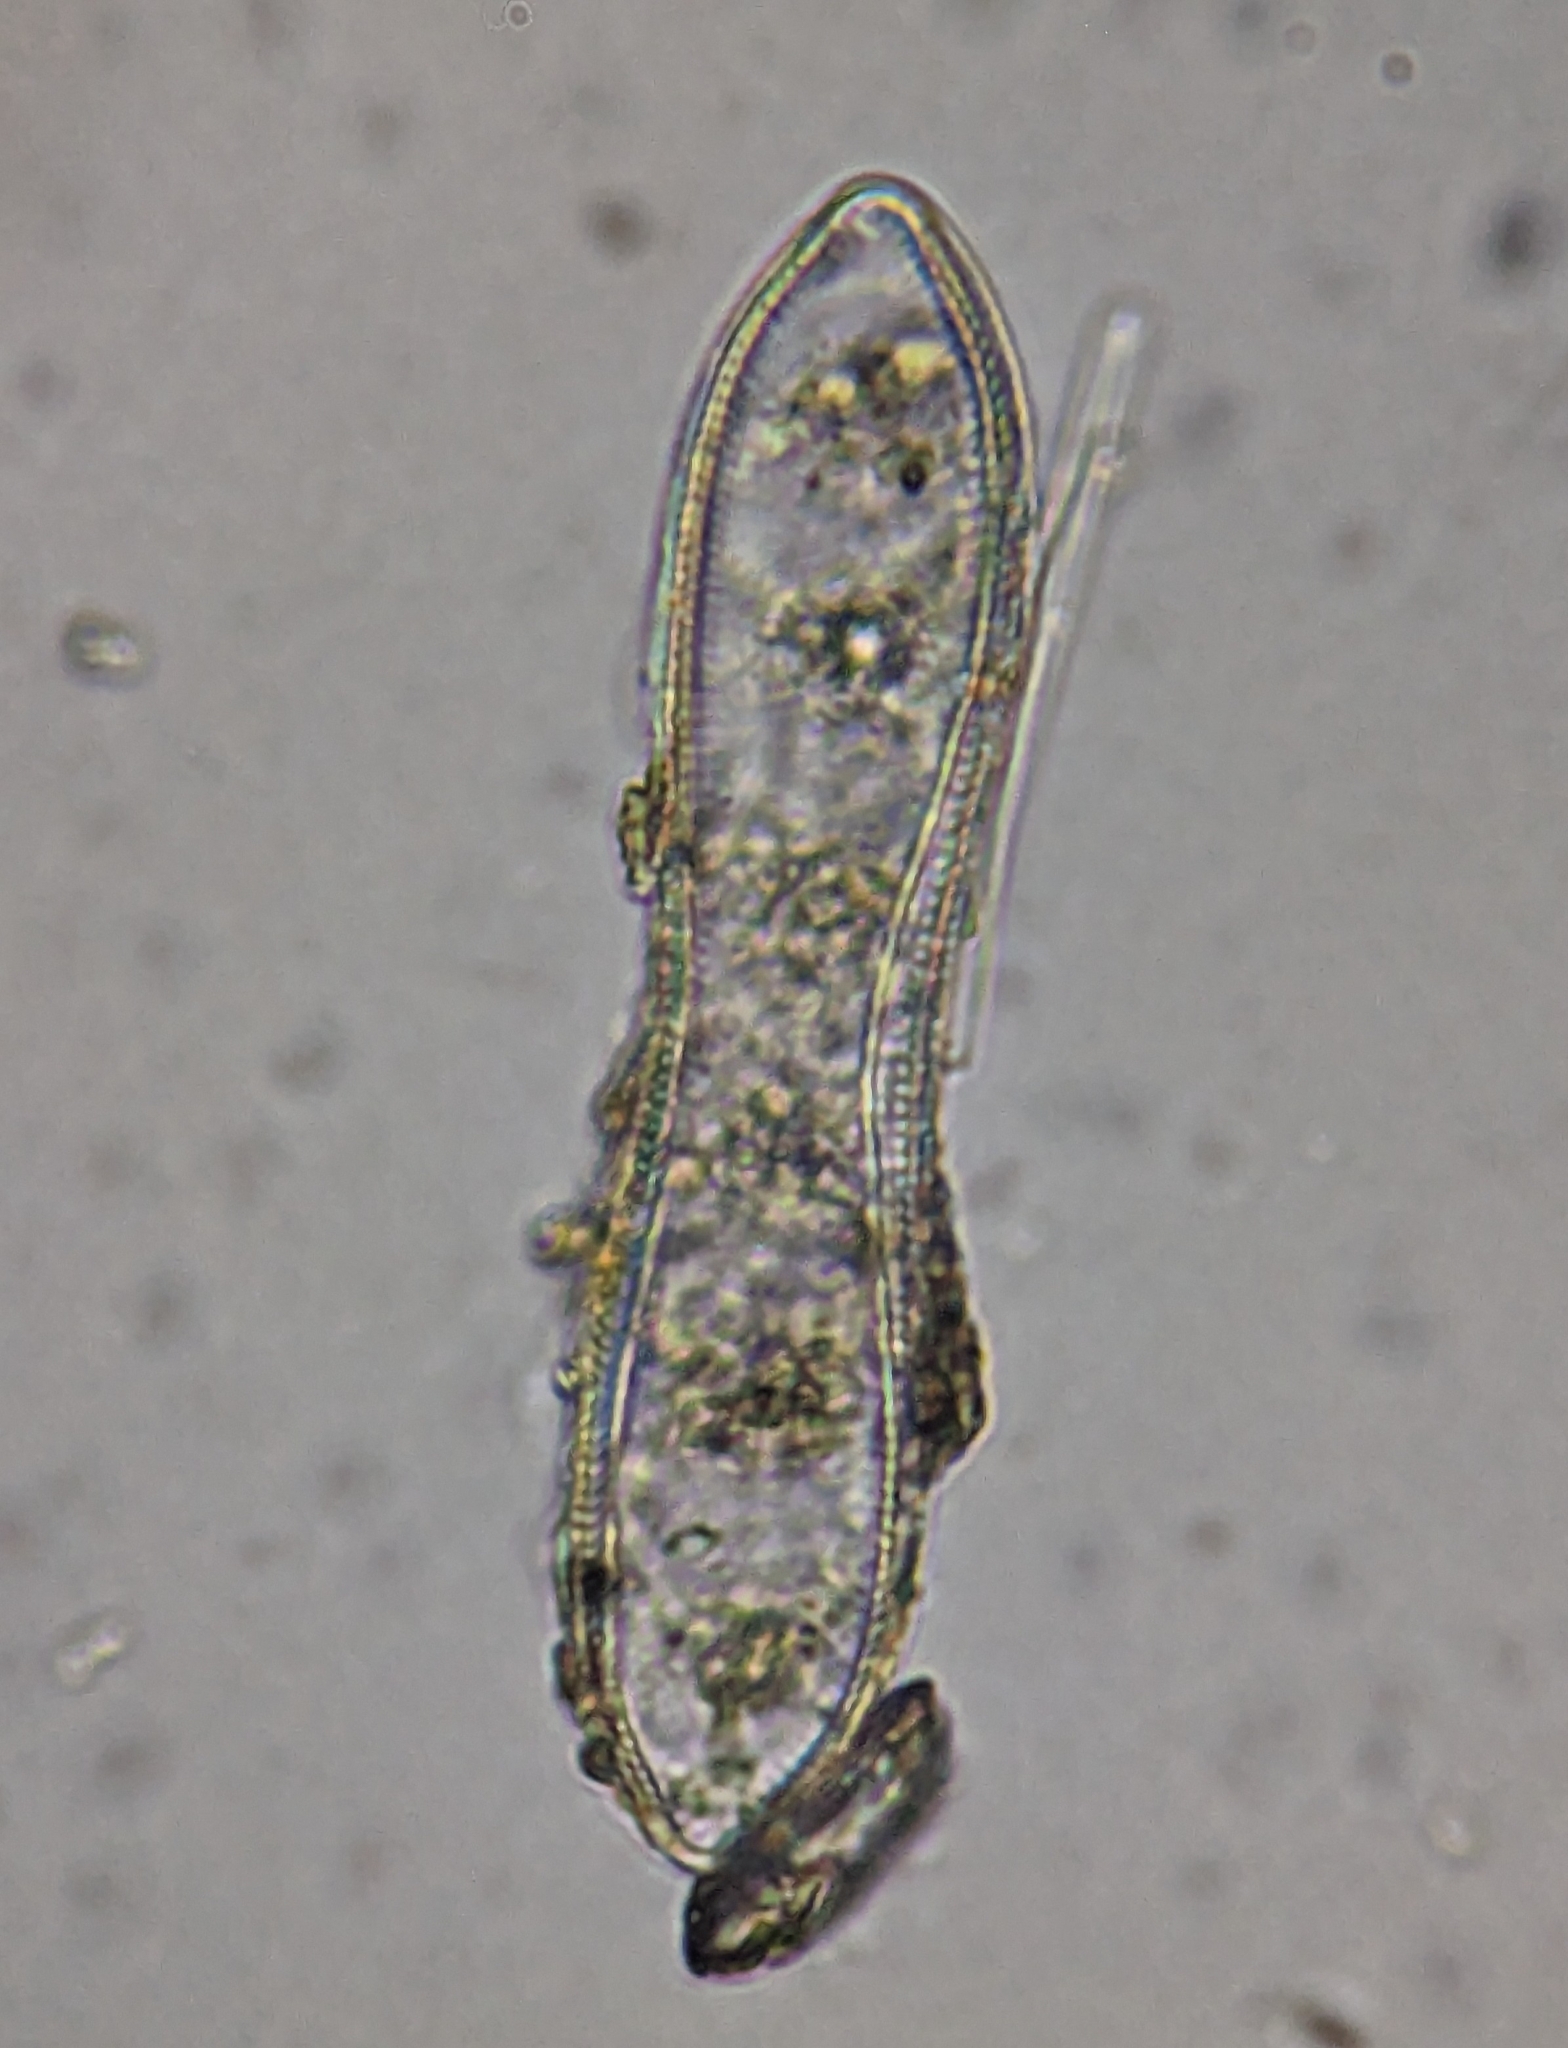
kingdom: Chromista
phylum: Ochrophyta
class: Bacillariophyceae
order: Surirellales
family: Surirellaceae
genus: Surirella
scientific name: Surirella librile
